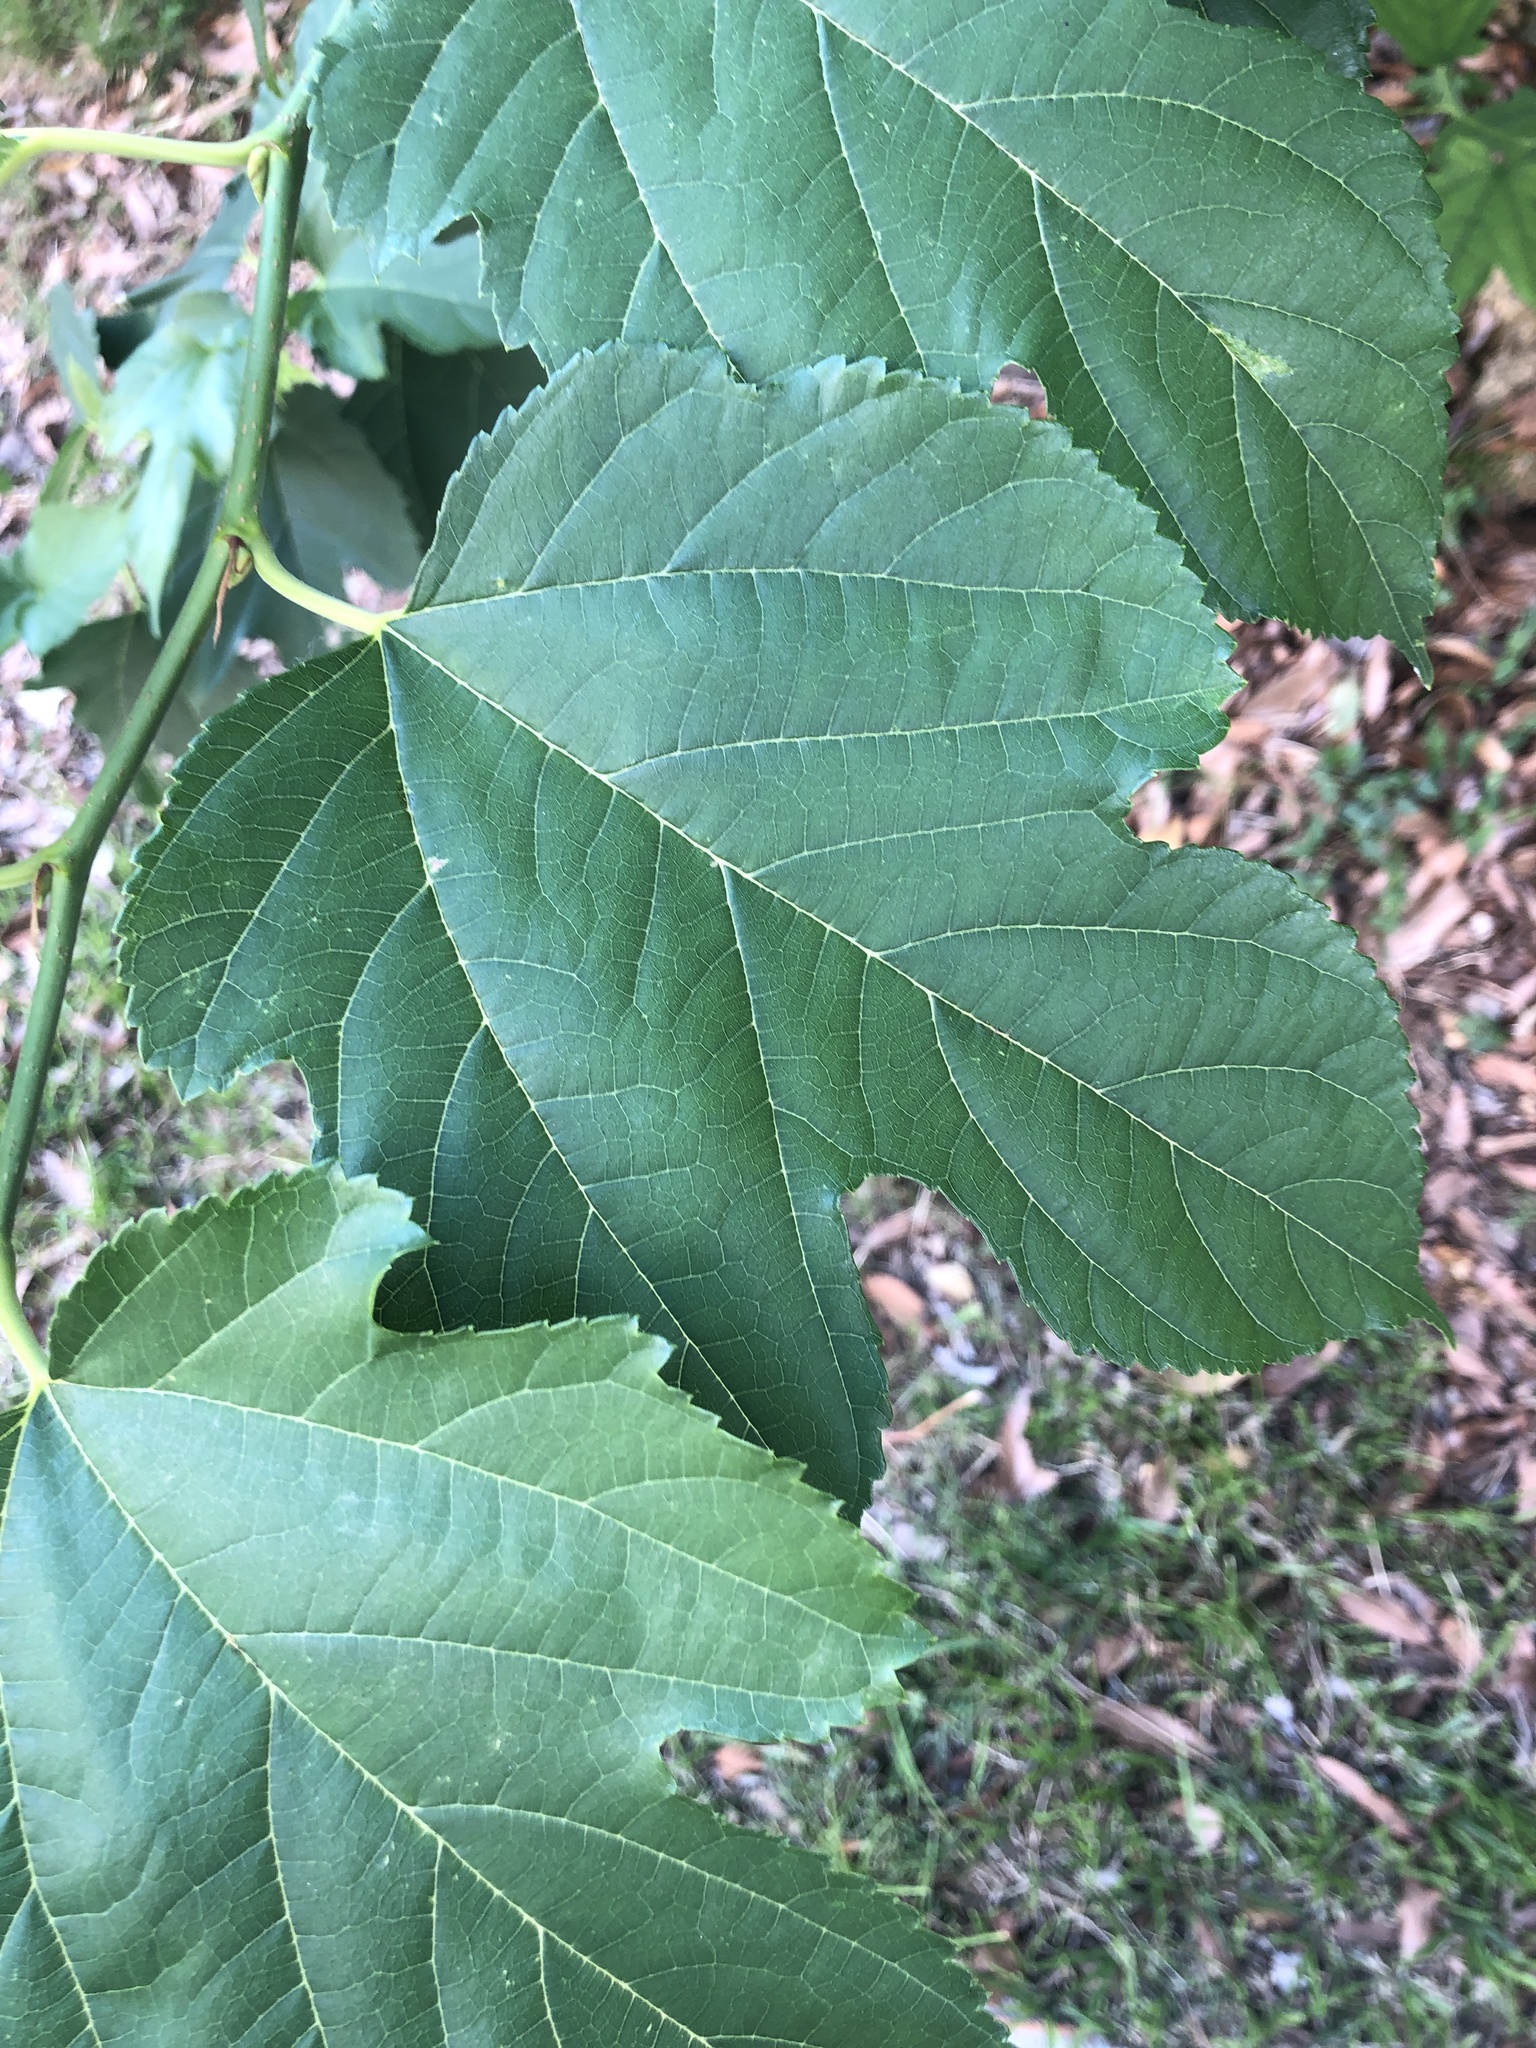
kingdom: Plantae
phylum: Tracheophyta
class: Magnoliopsida
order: Rosales
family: Moraceae
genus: Morus
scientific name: Morus indica
